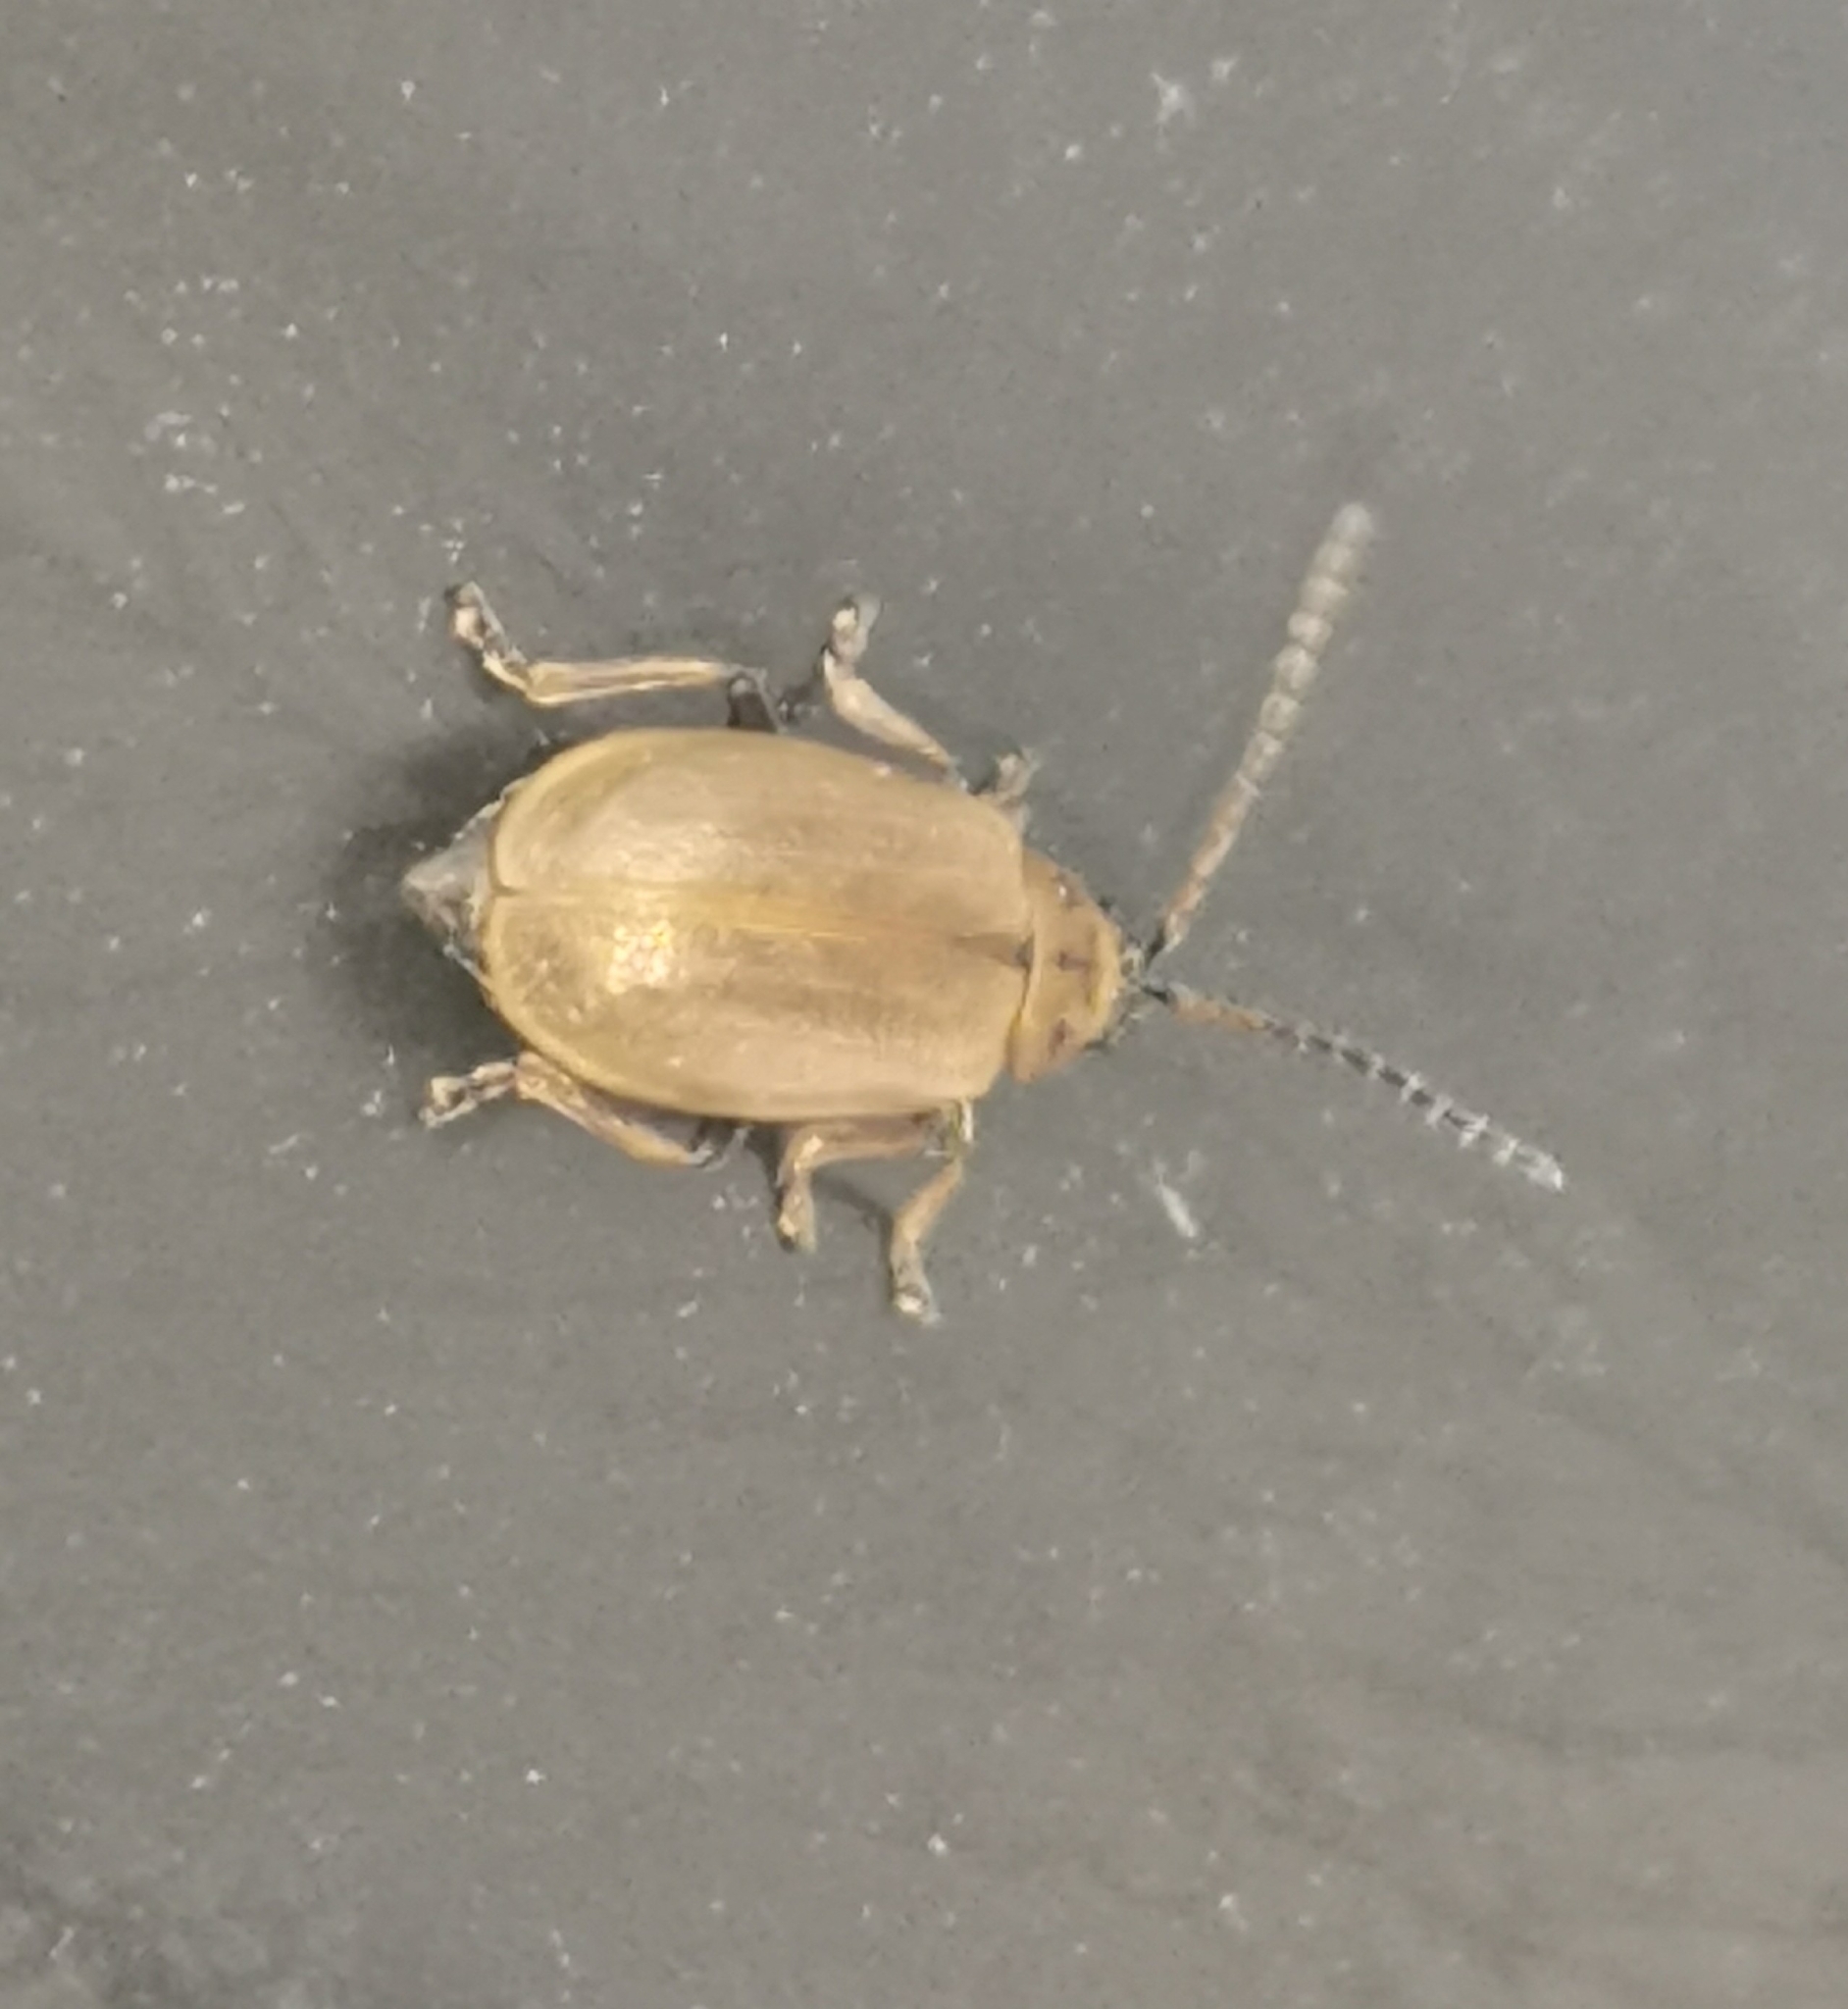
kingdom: Animalia
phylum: Arthropoda
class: Insecta
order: Coleoptera
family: Chrysomelidae
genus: Galerucella
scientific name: Galerucella lineola
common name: Brown willow beetle
